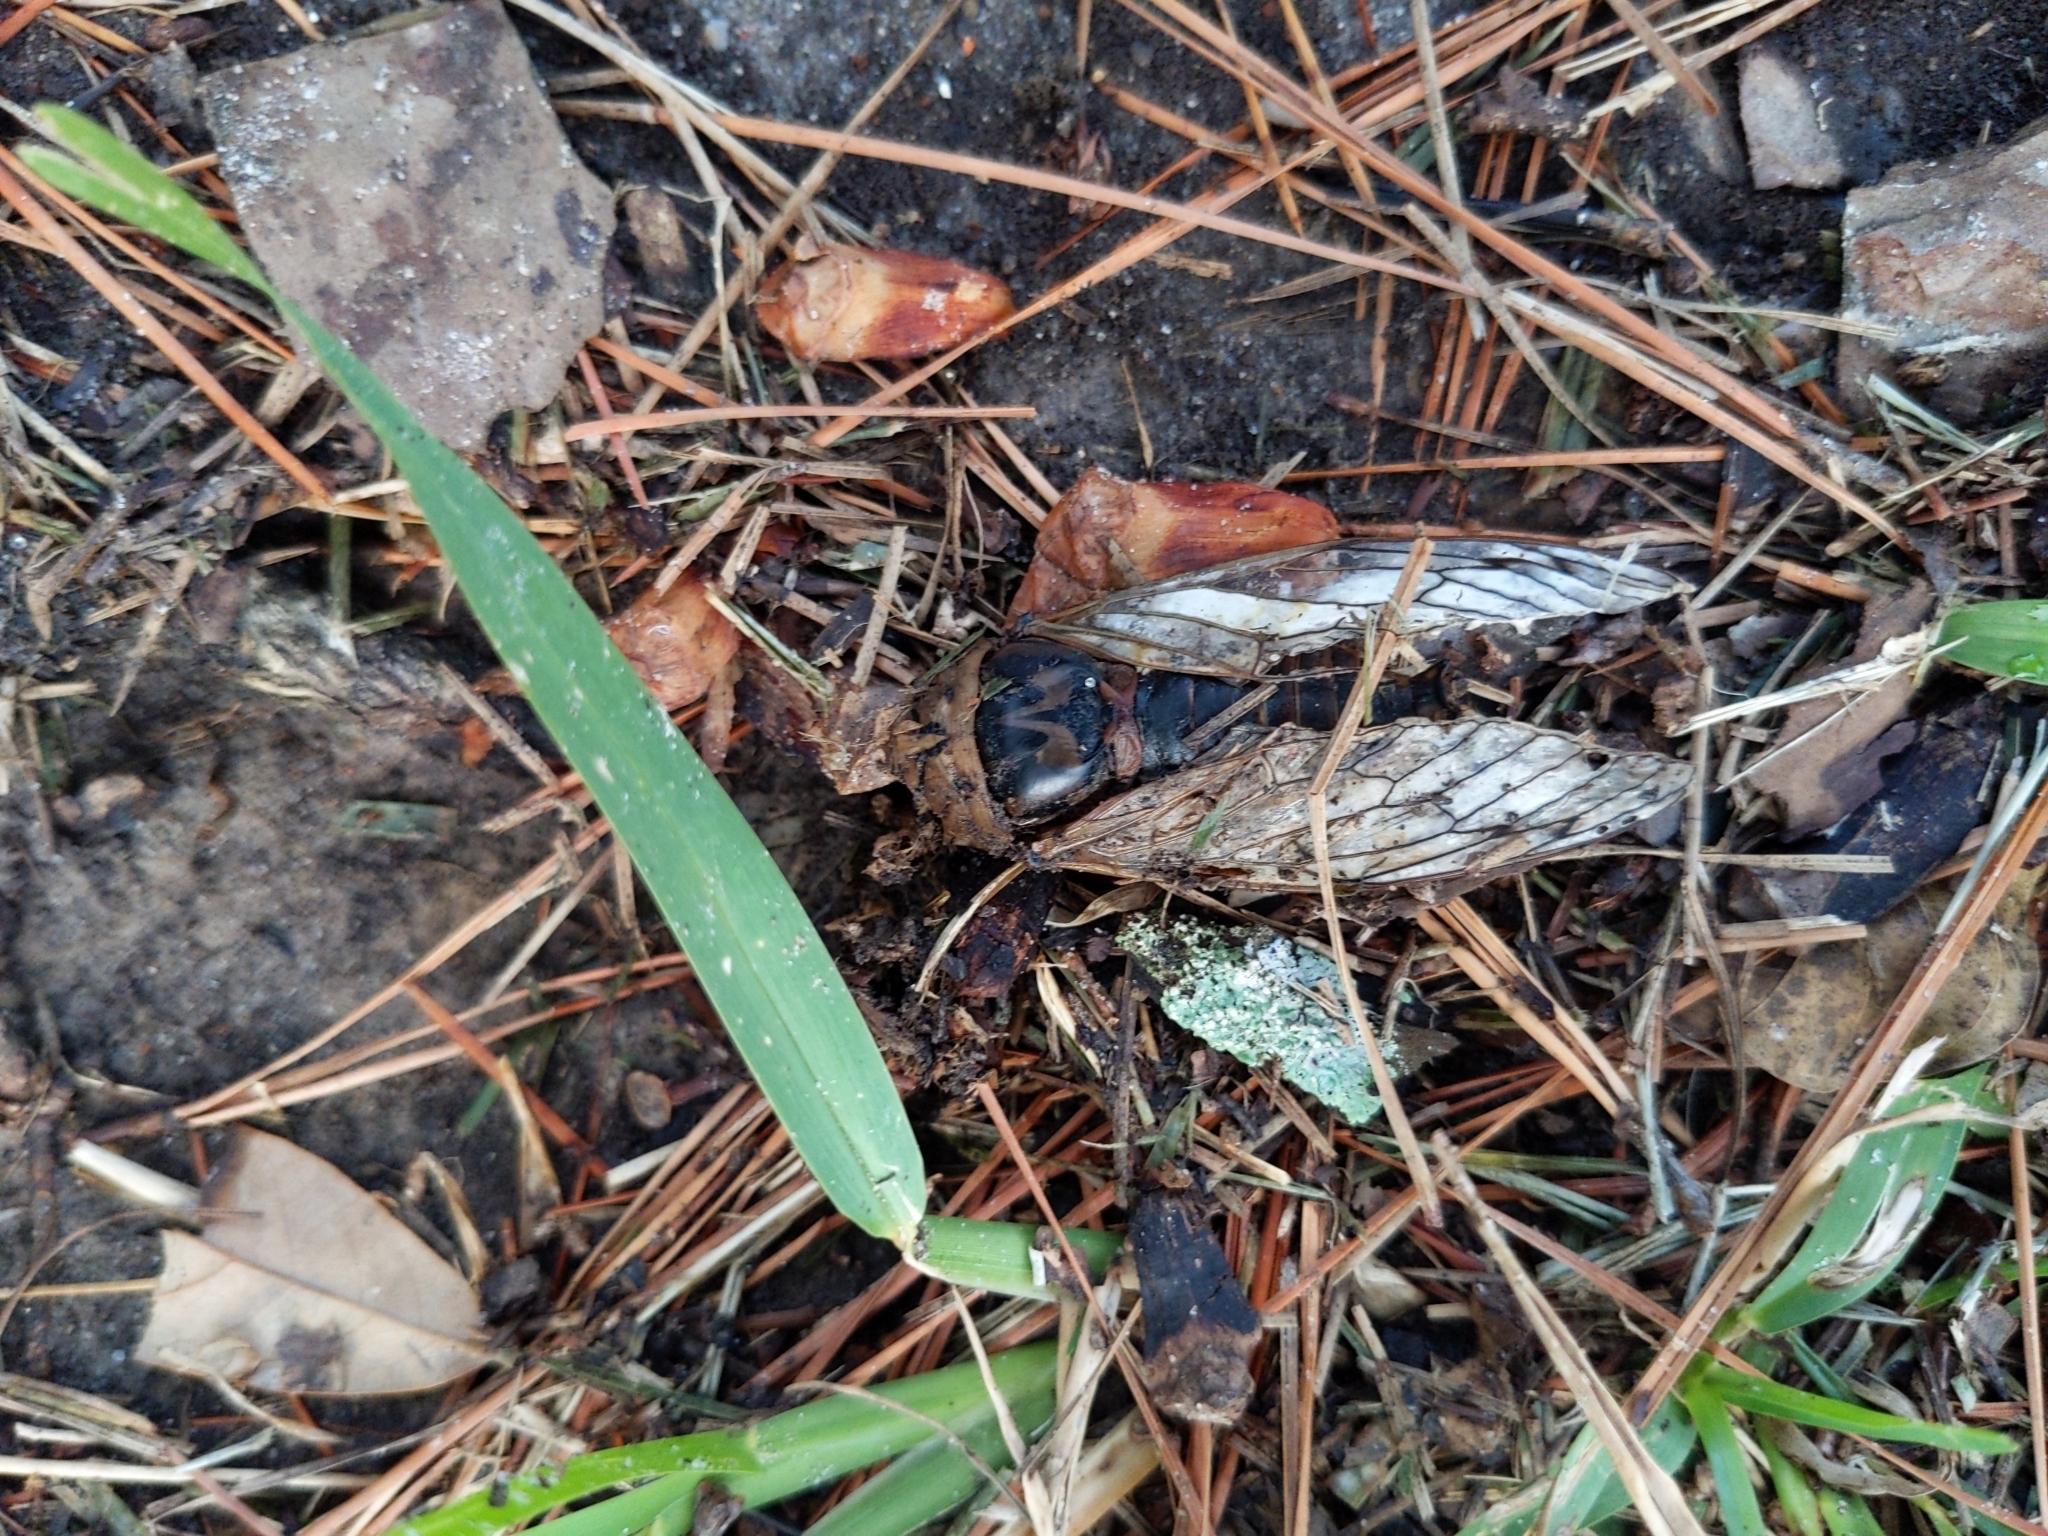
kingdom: Animalia
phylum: Arthropoda
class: Insecta
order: Hemiptera
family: Cicadidae
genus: Megatibicen
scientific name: Megatibicen resh
